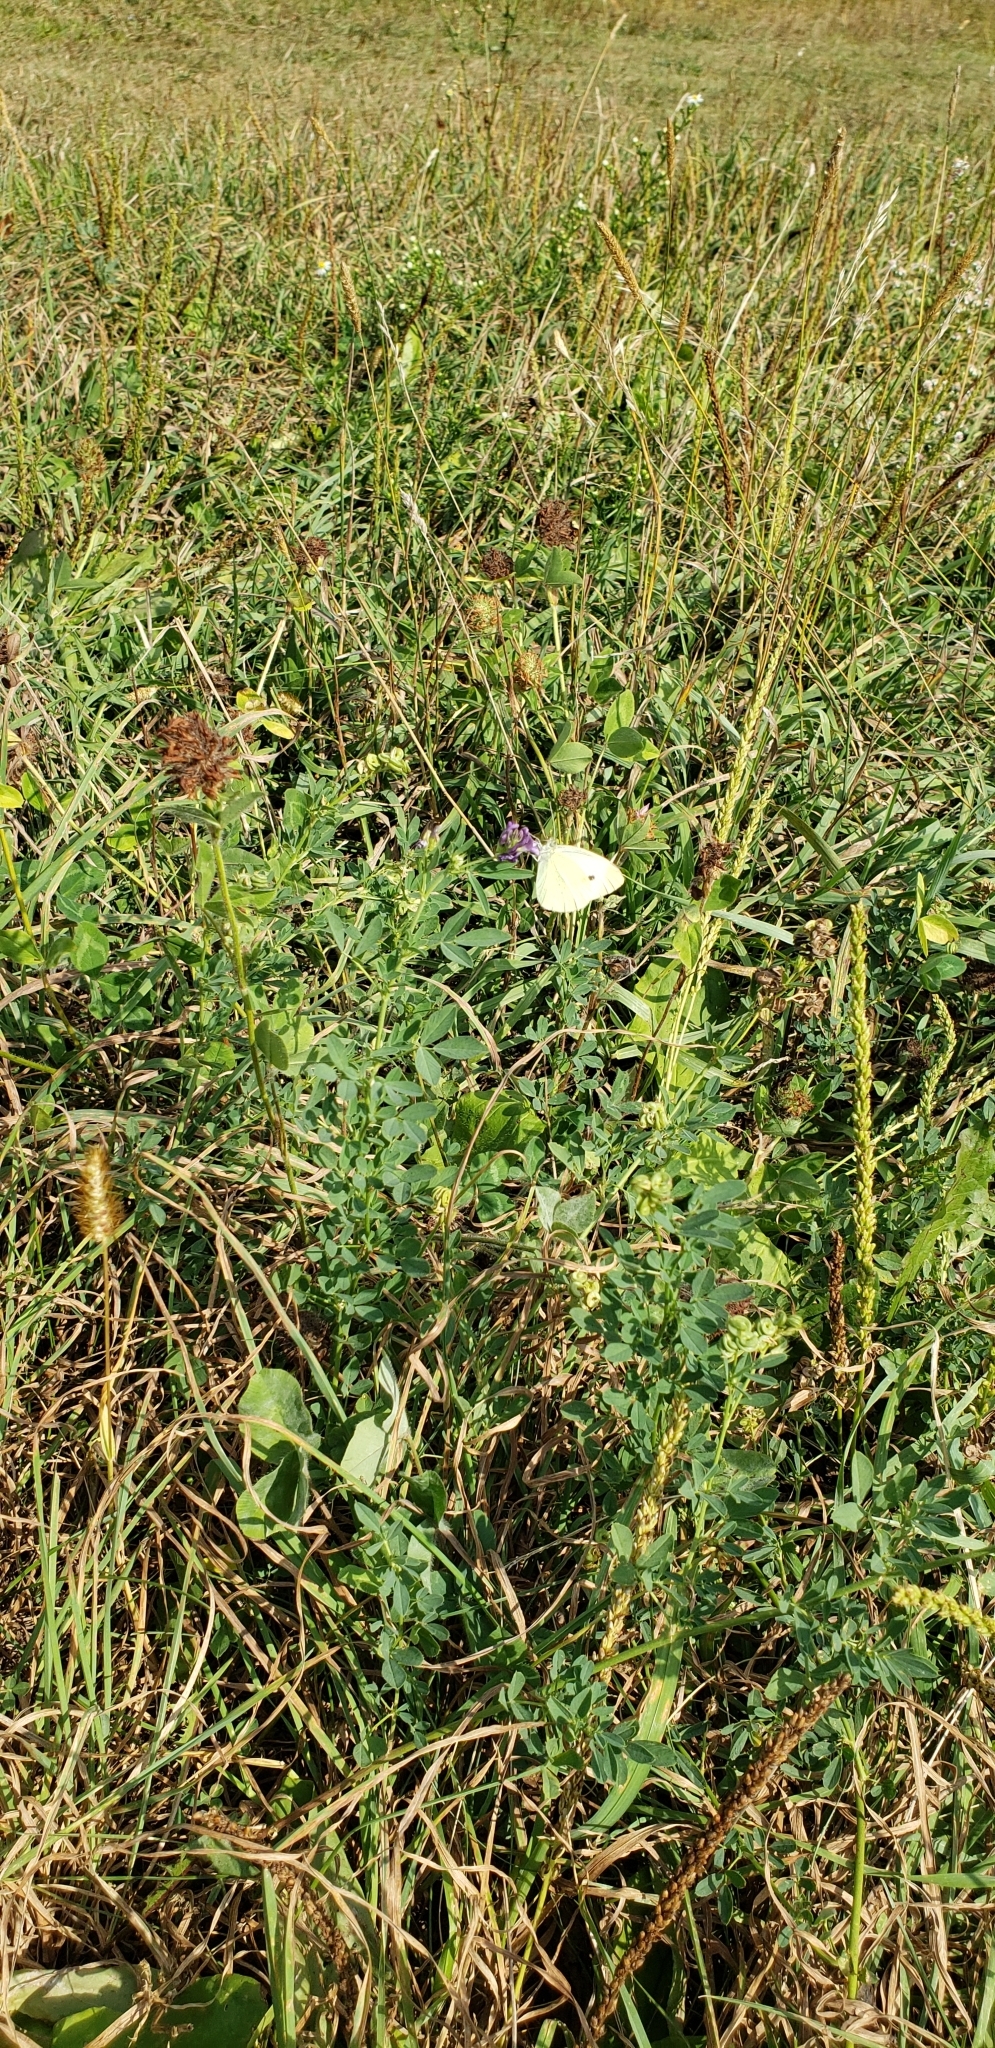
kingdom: Animalia
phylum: Arthropoda
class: Insecta
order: Lepidoptera
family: Pieridae
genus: Pieris
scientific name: Pieris rapae
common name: Small white
